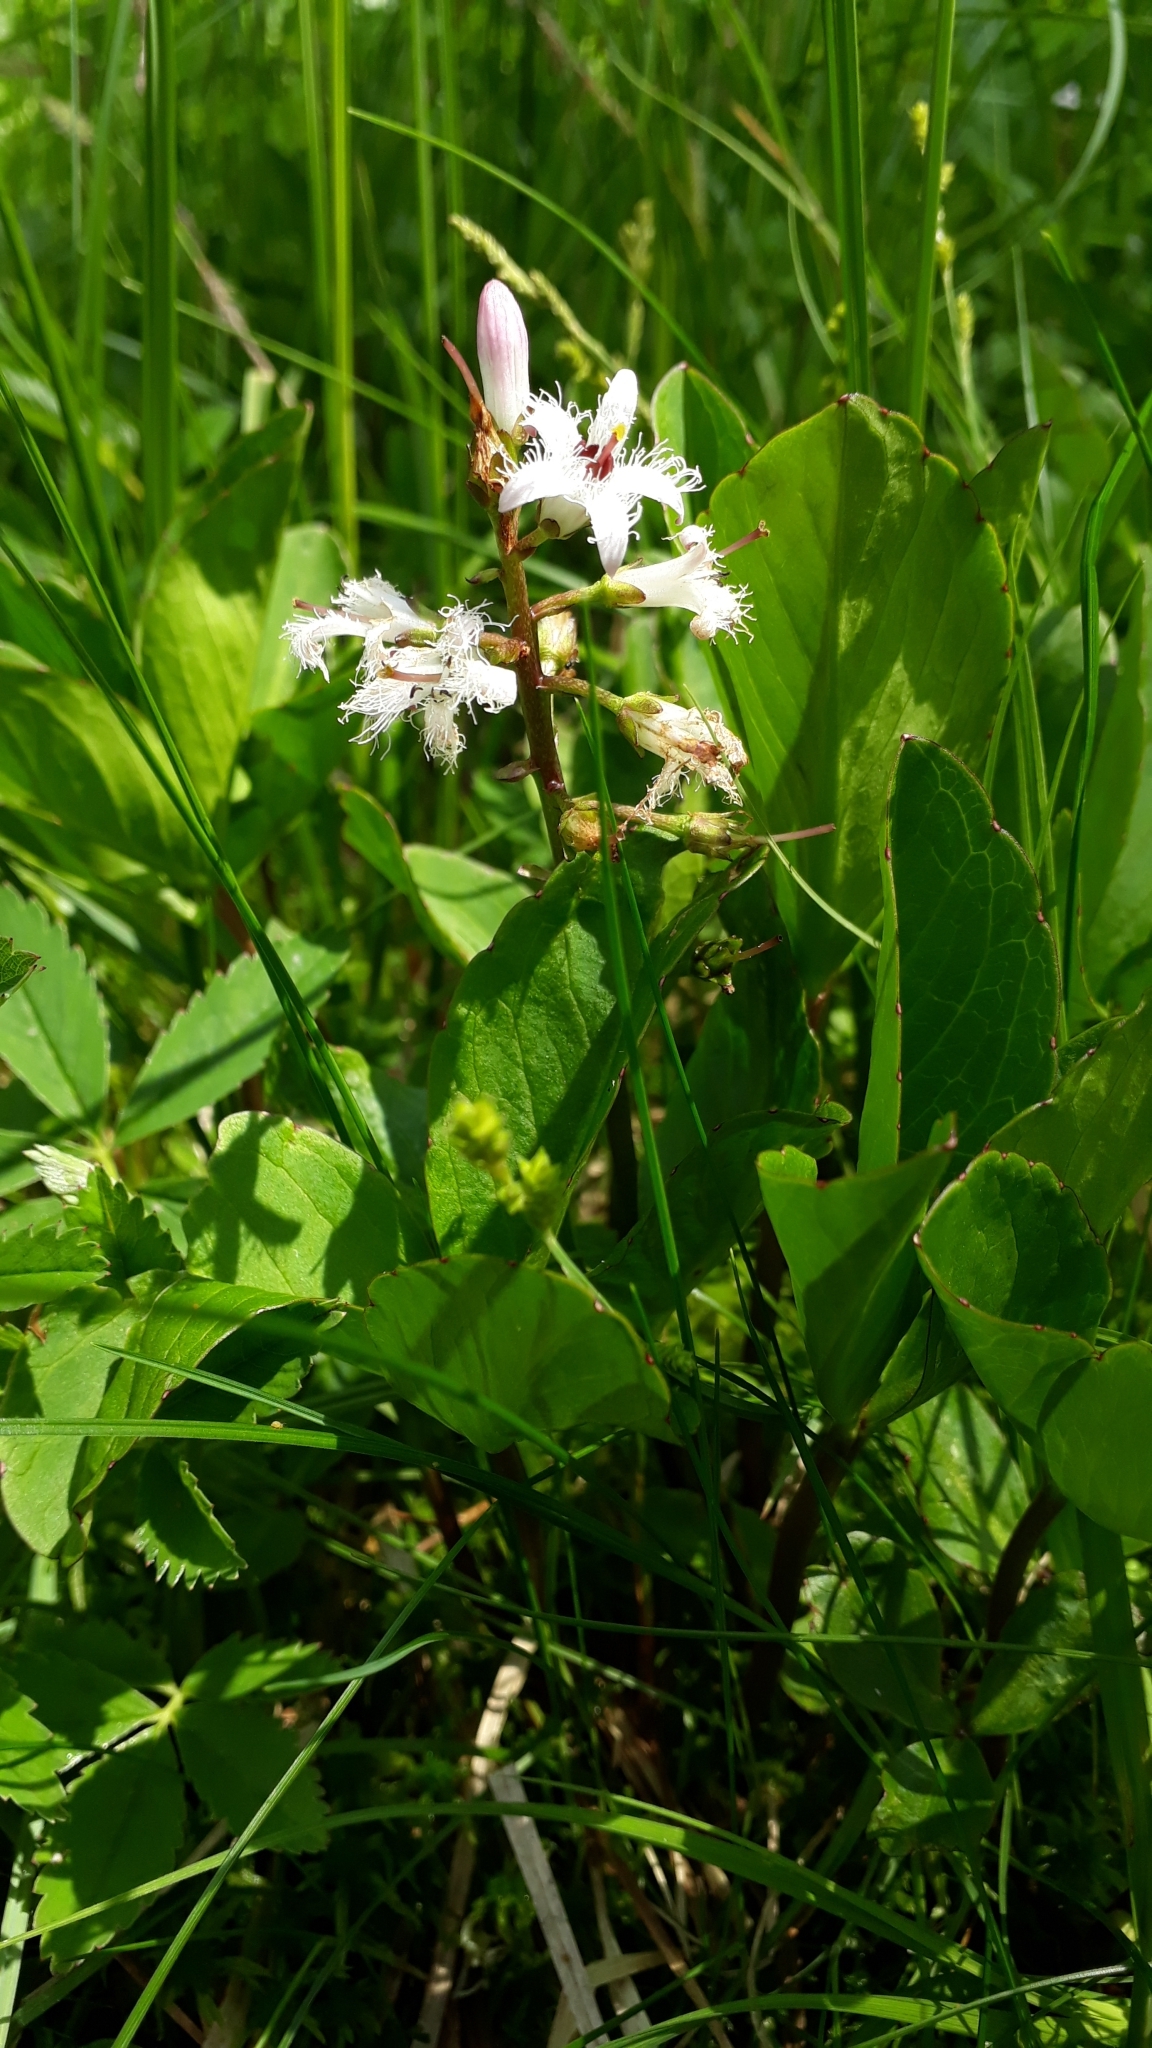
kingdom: Plantae
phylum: Tracheophyta
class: Magnoliopsida
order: Asterales
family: Menyanthaceae
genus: Menyanthes
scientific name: Menyanthes trifoliata
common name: Bogbean
